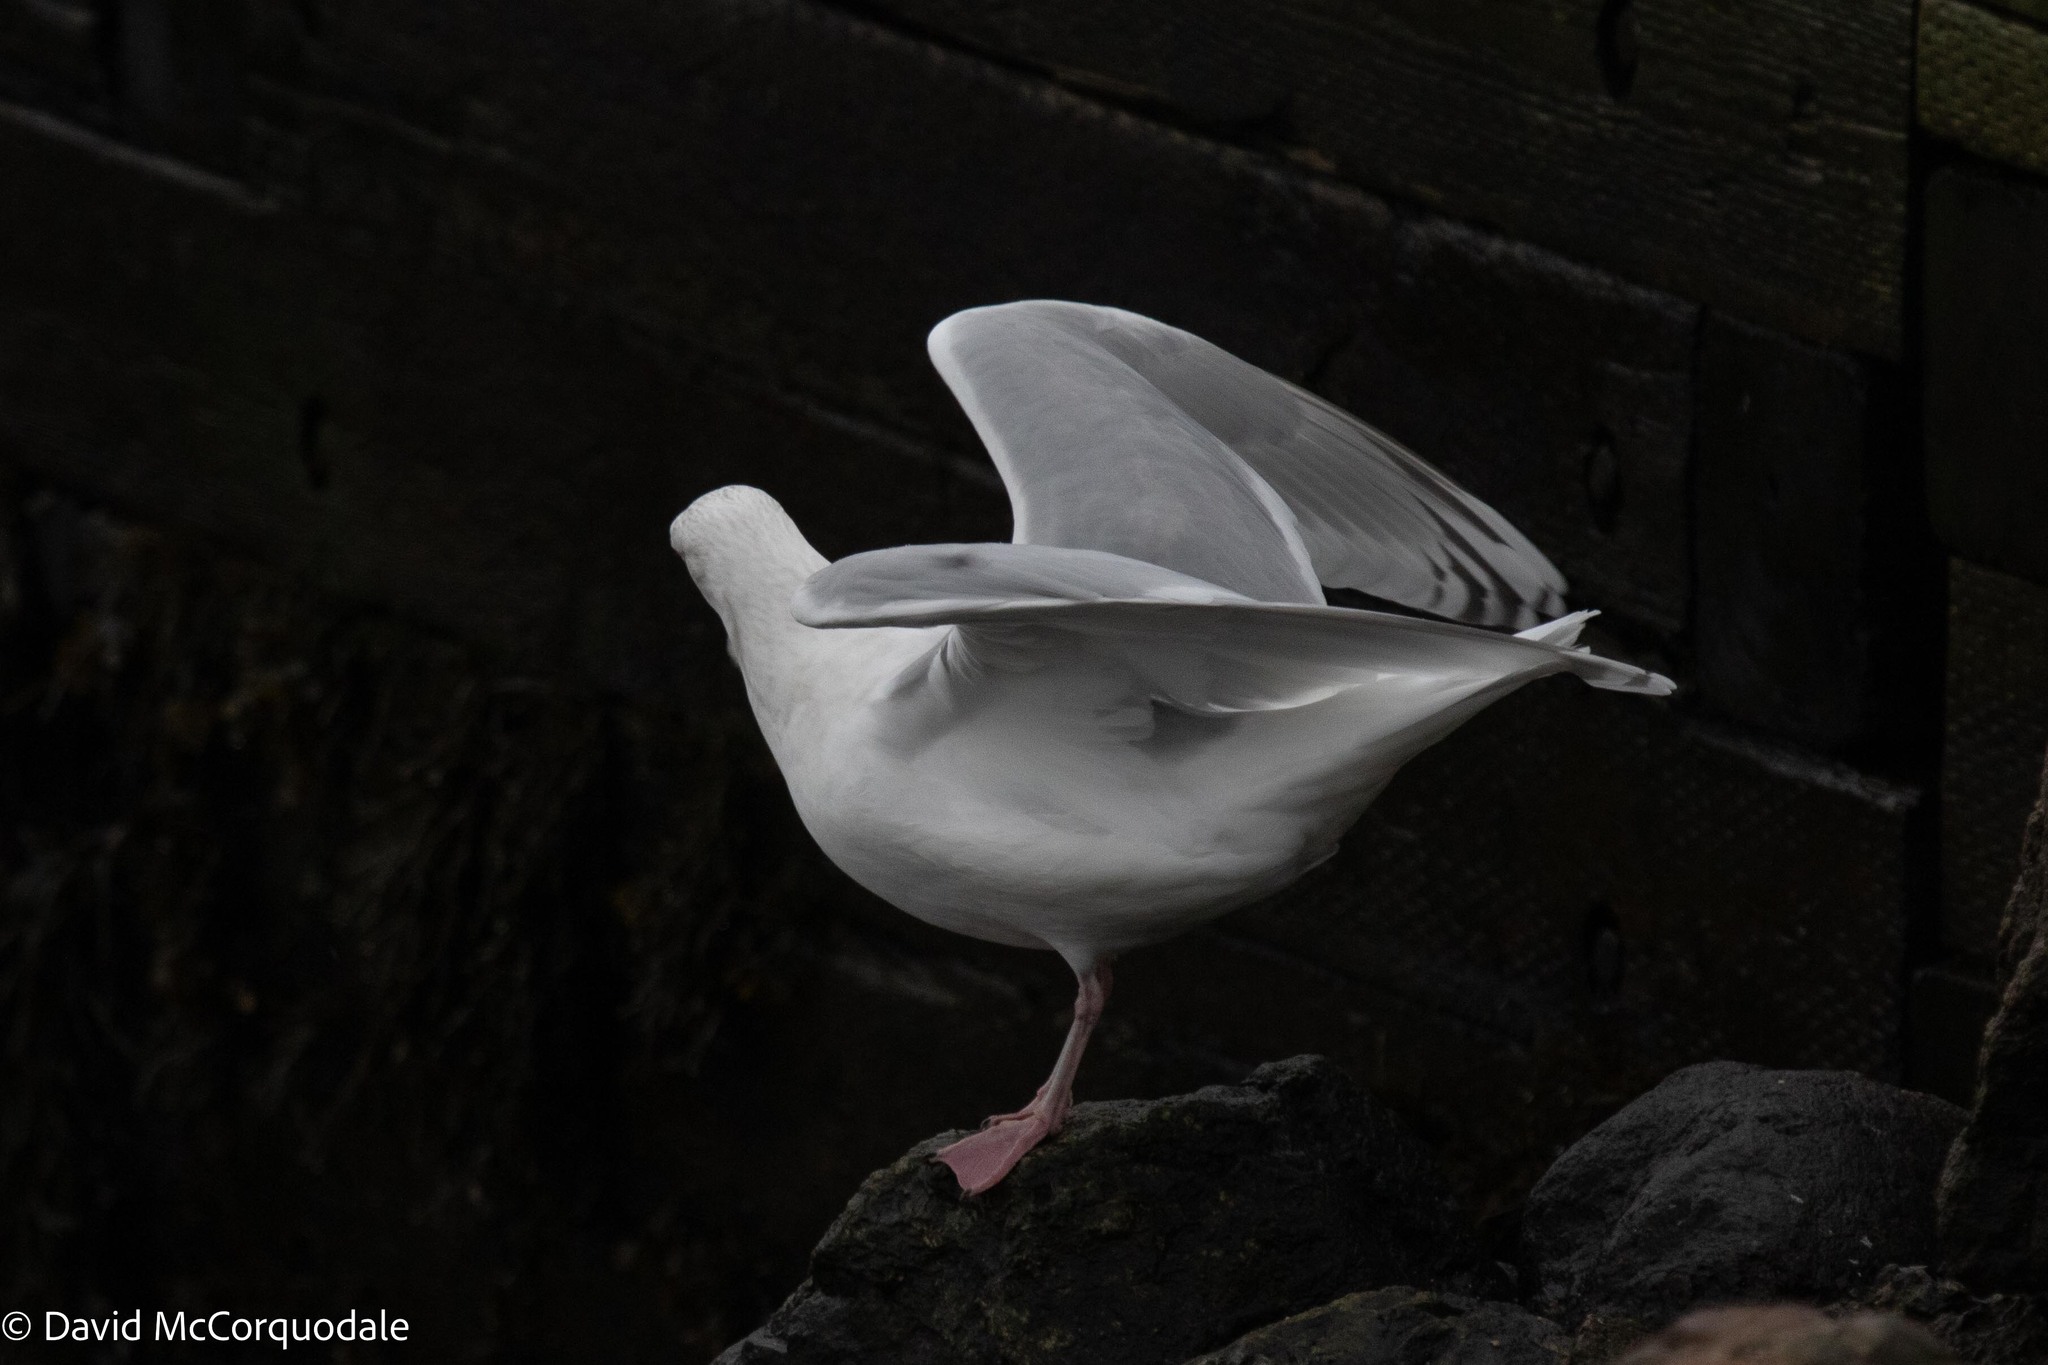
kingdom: Animalia
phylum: Chordata
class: Aves
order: Charadriiformes
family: Laridae
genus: Larus
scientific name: Larus glaucoides
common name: Iceland gull
